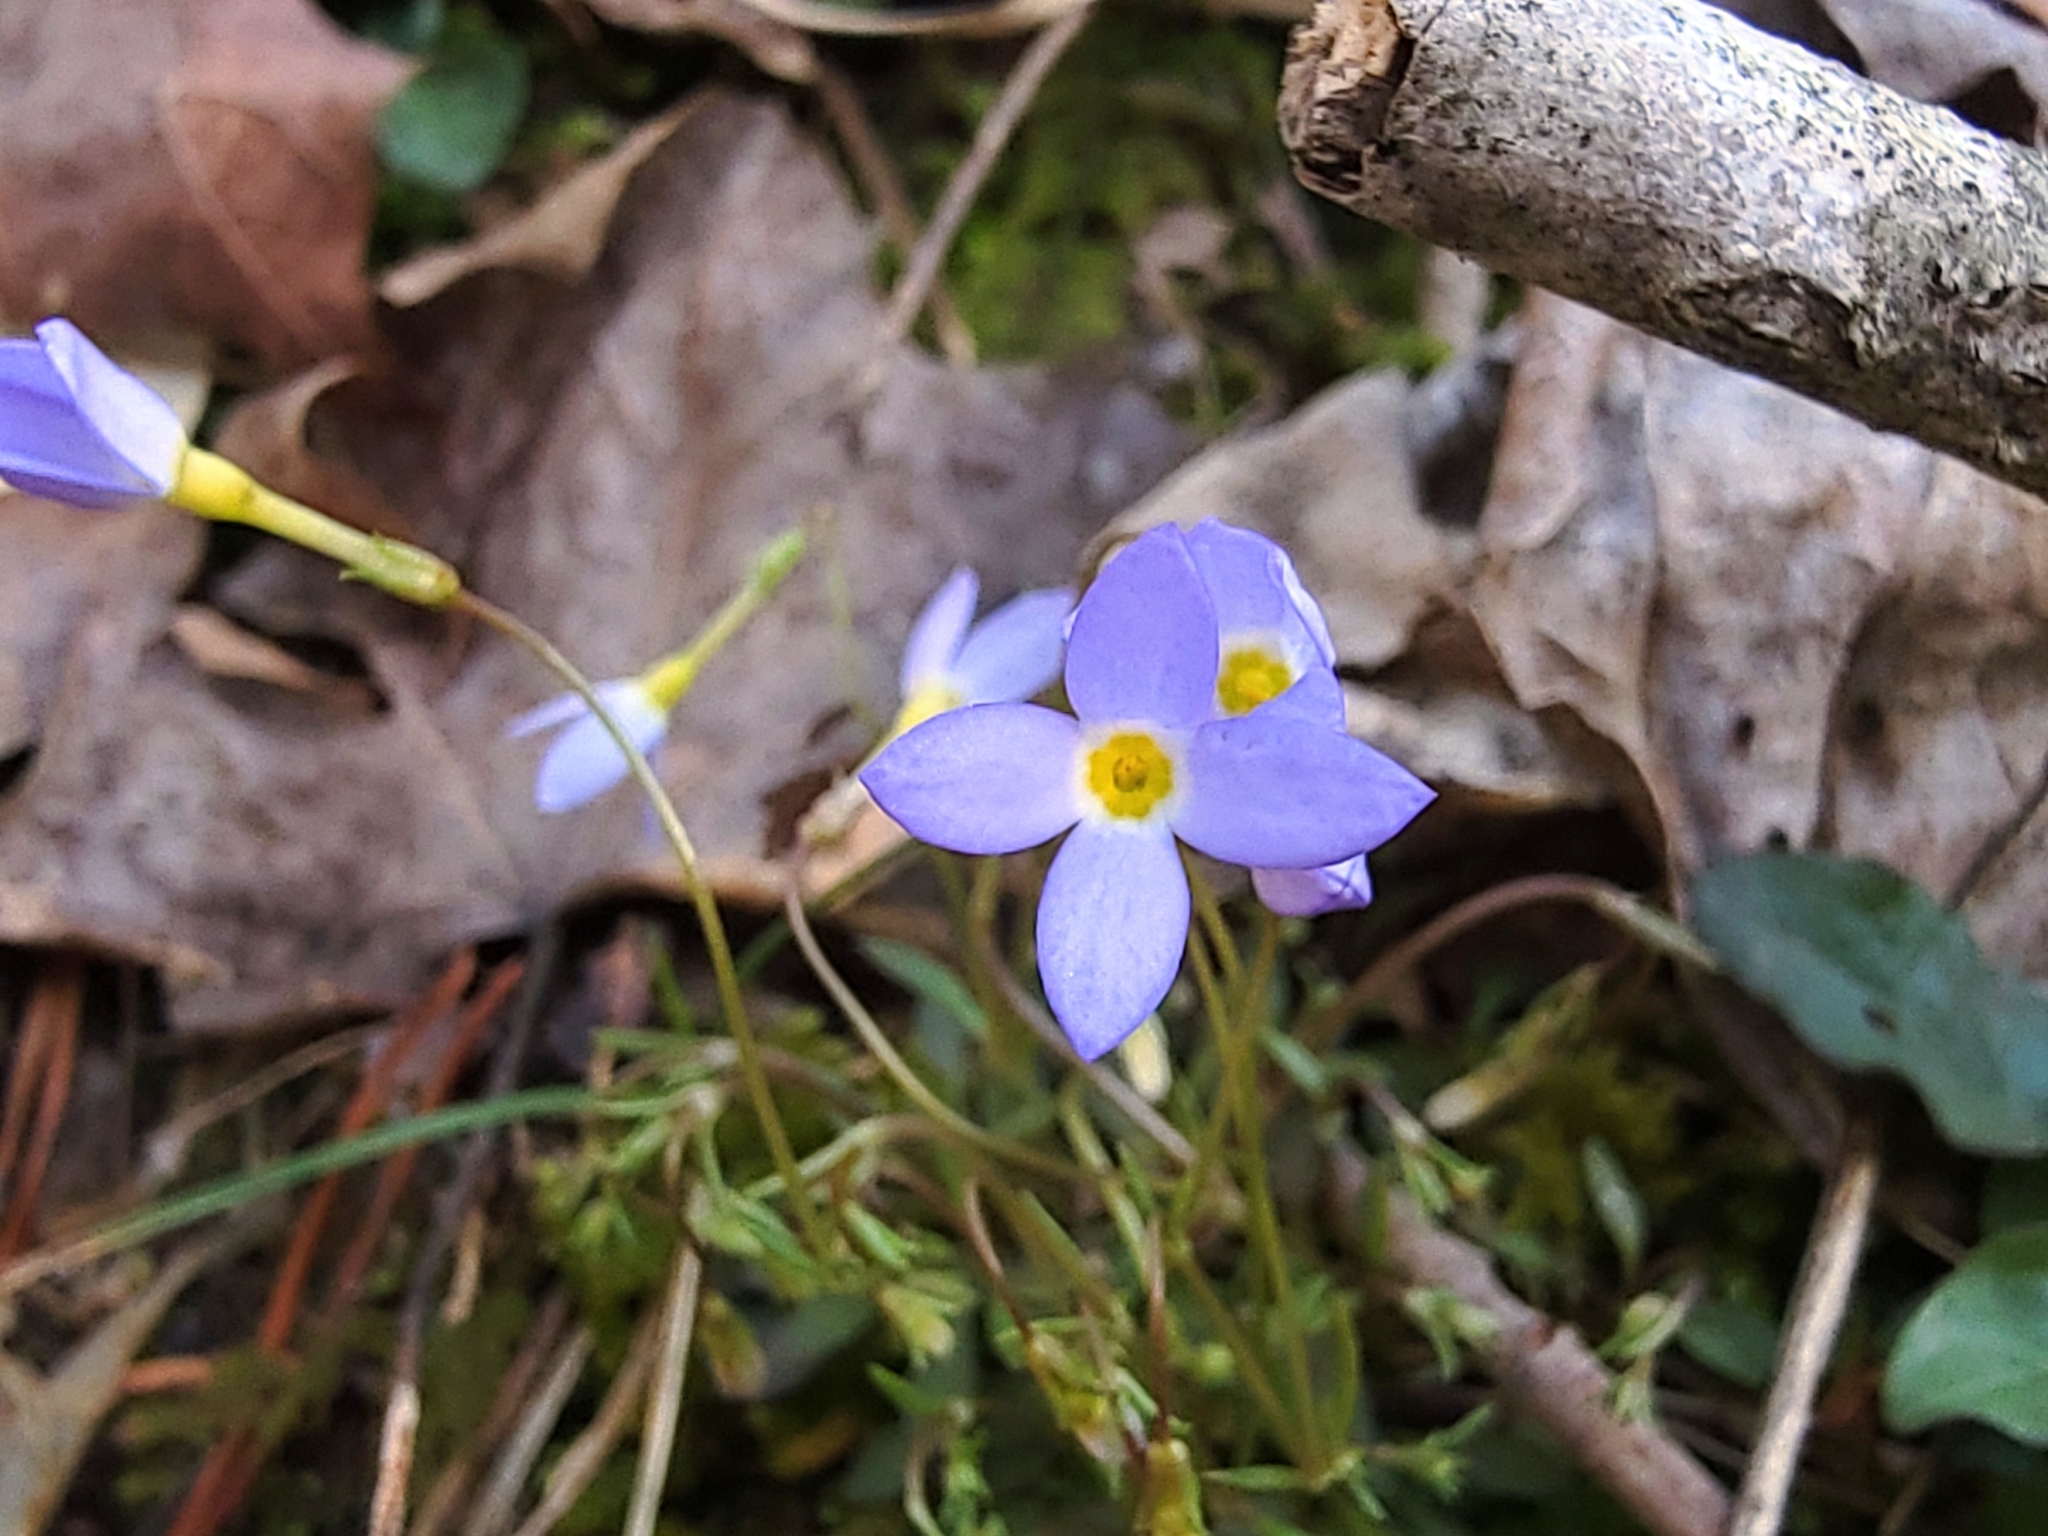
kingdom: Plantae
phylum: Tracheophyta
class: Magnoliopsida
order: Gentianales
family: Rubiaceae
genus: Houstonia
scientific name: Houstonia caerulea
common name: Bluets
